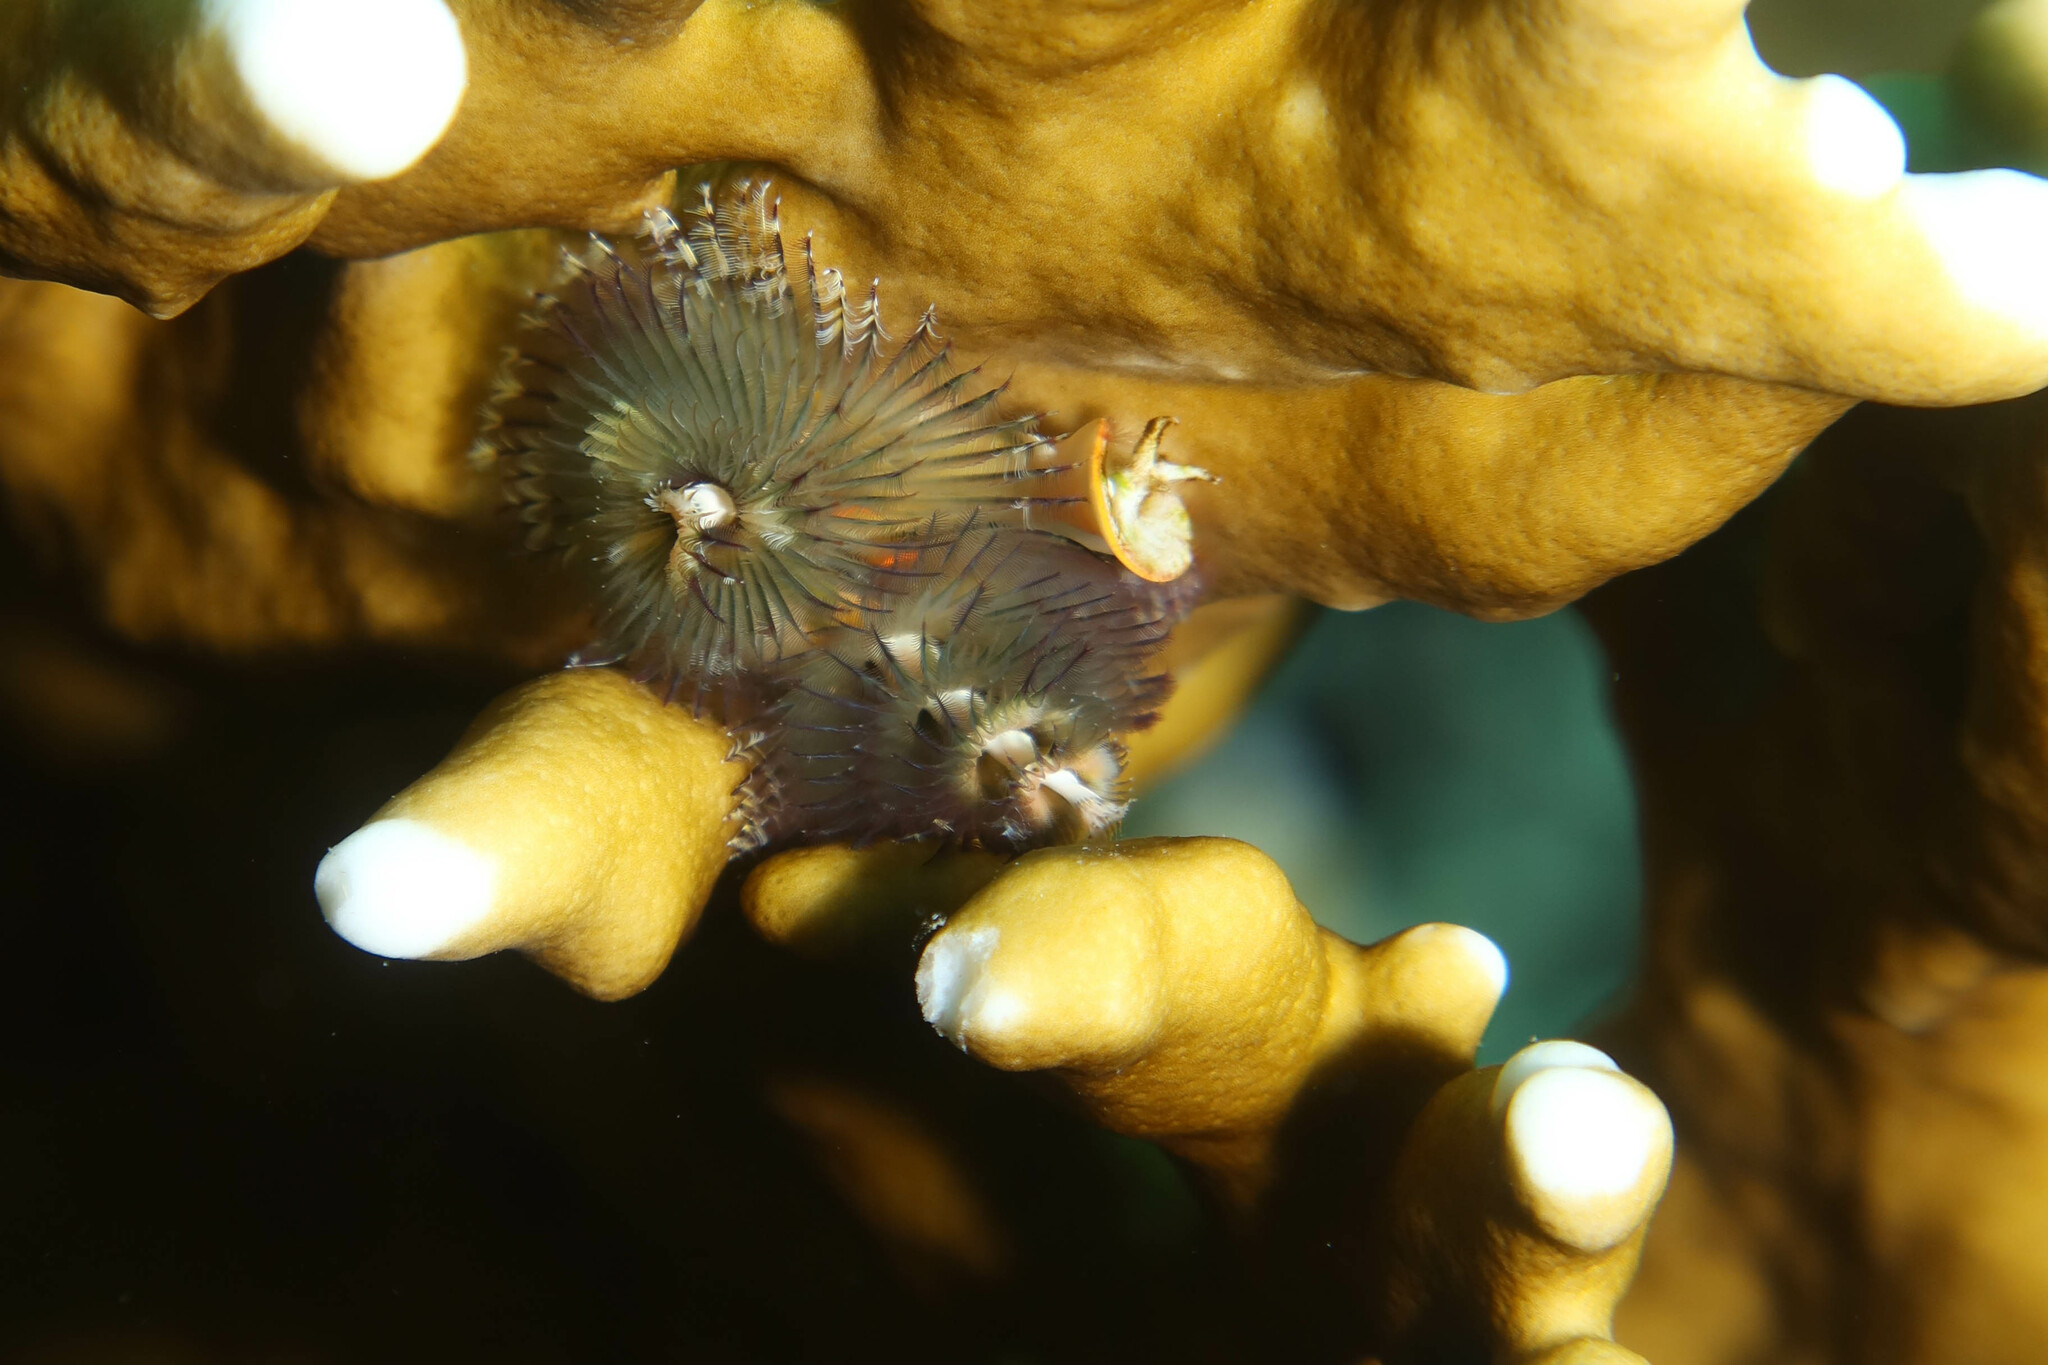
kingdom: Animalia
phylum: Annelida
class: Polychaeta
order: Sabellida
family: Serpulidae
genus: Spirobranchus
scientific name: Spirobranchus
